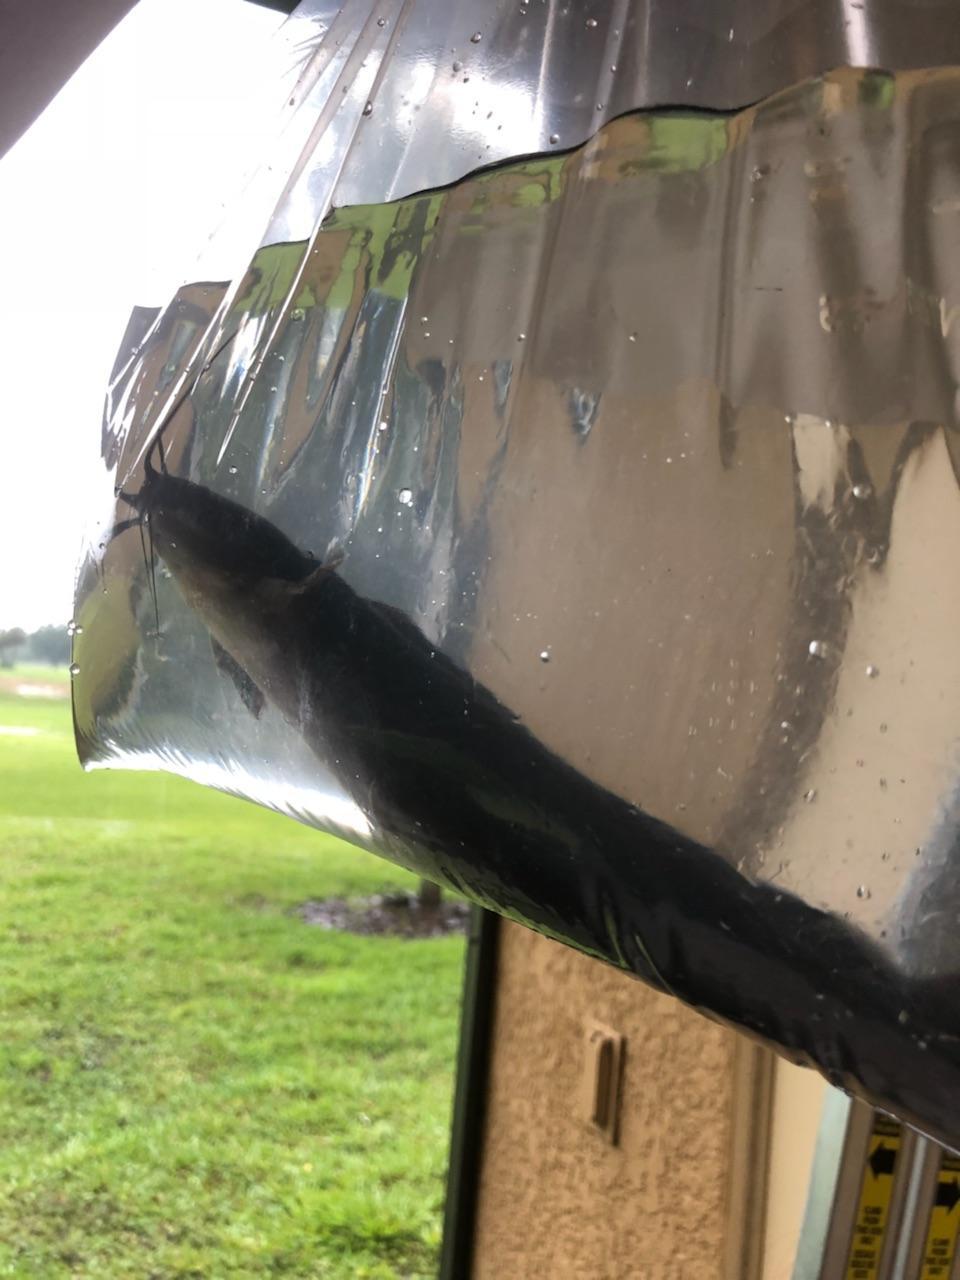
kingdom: Animalia
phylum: Chordata
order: Siluriformes
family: Clariidae
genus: Clarias
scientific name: Clarias batrachus
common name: Walking catfish
